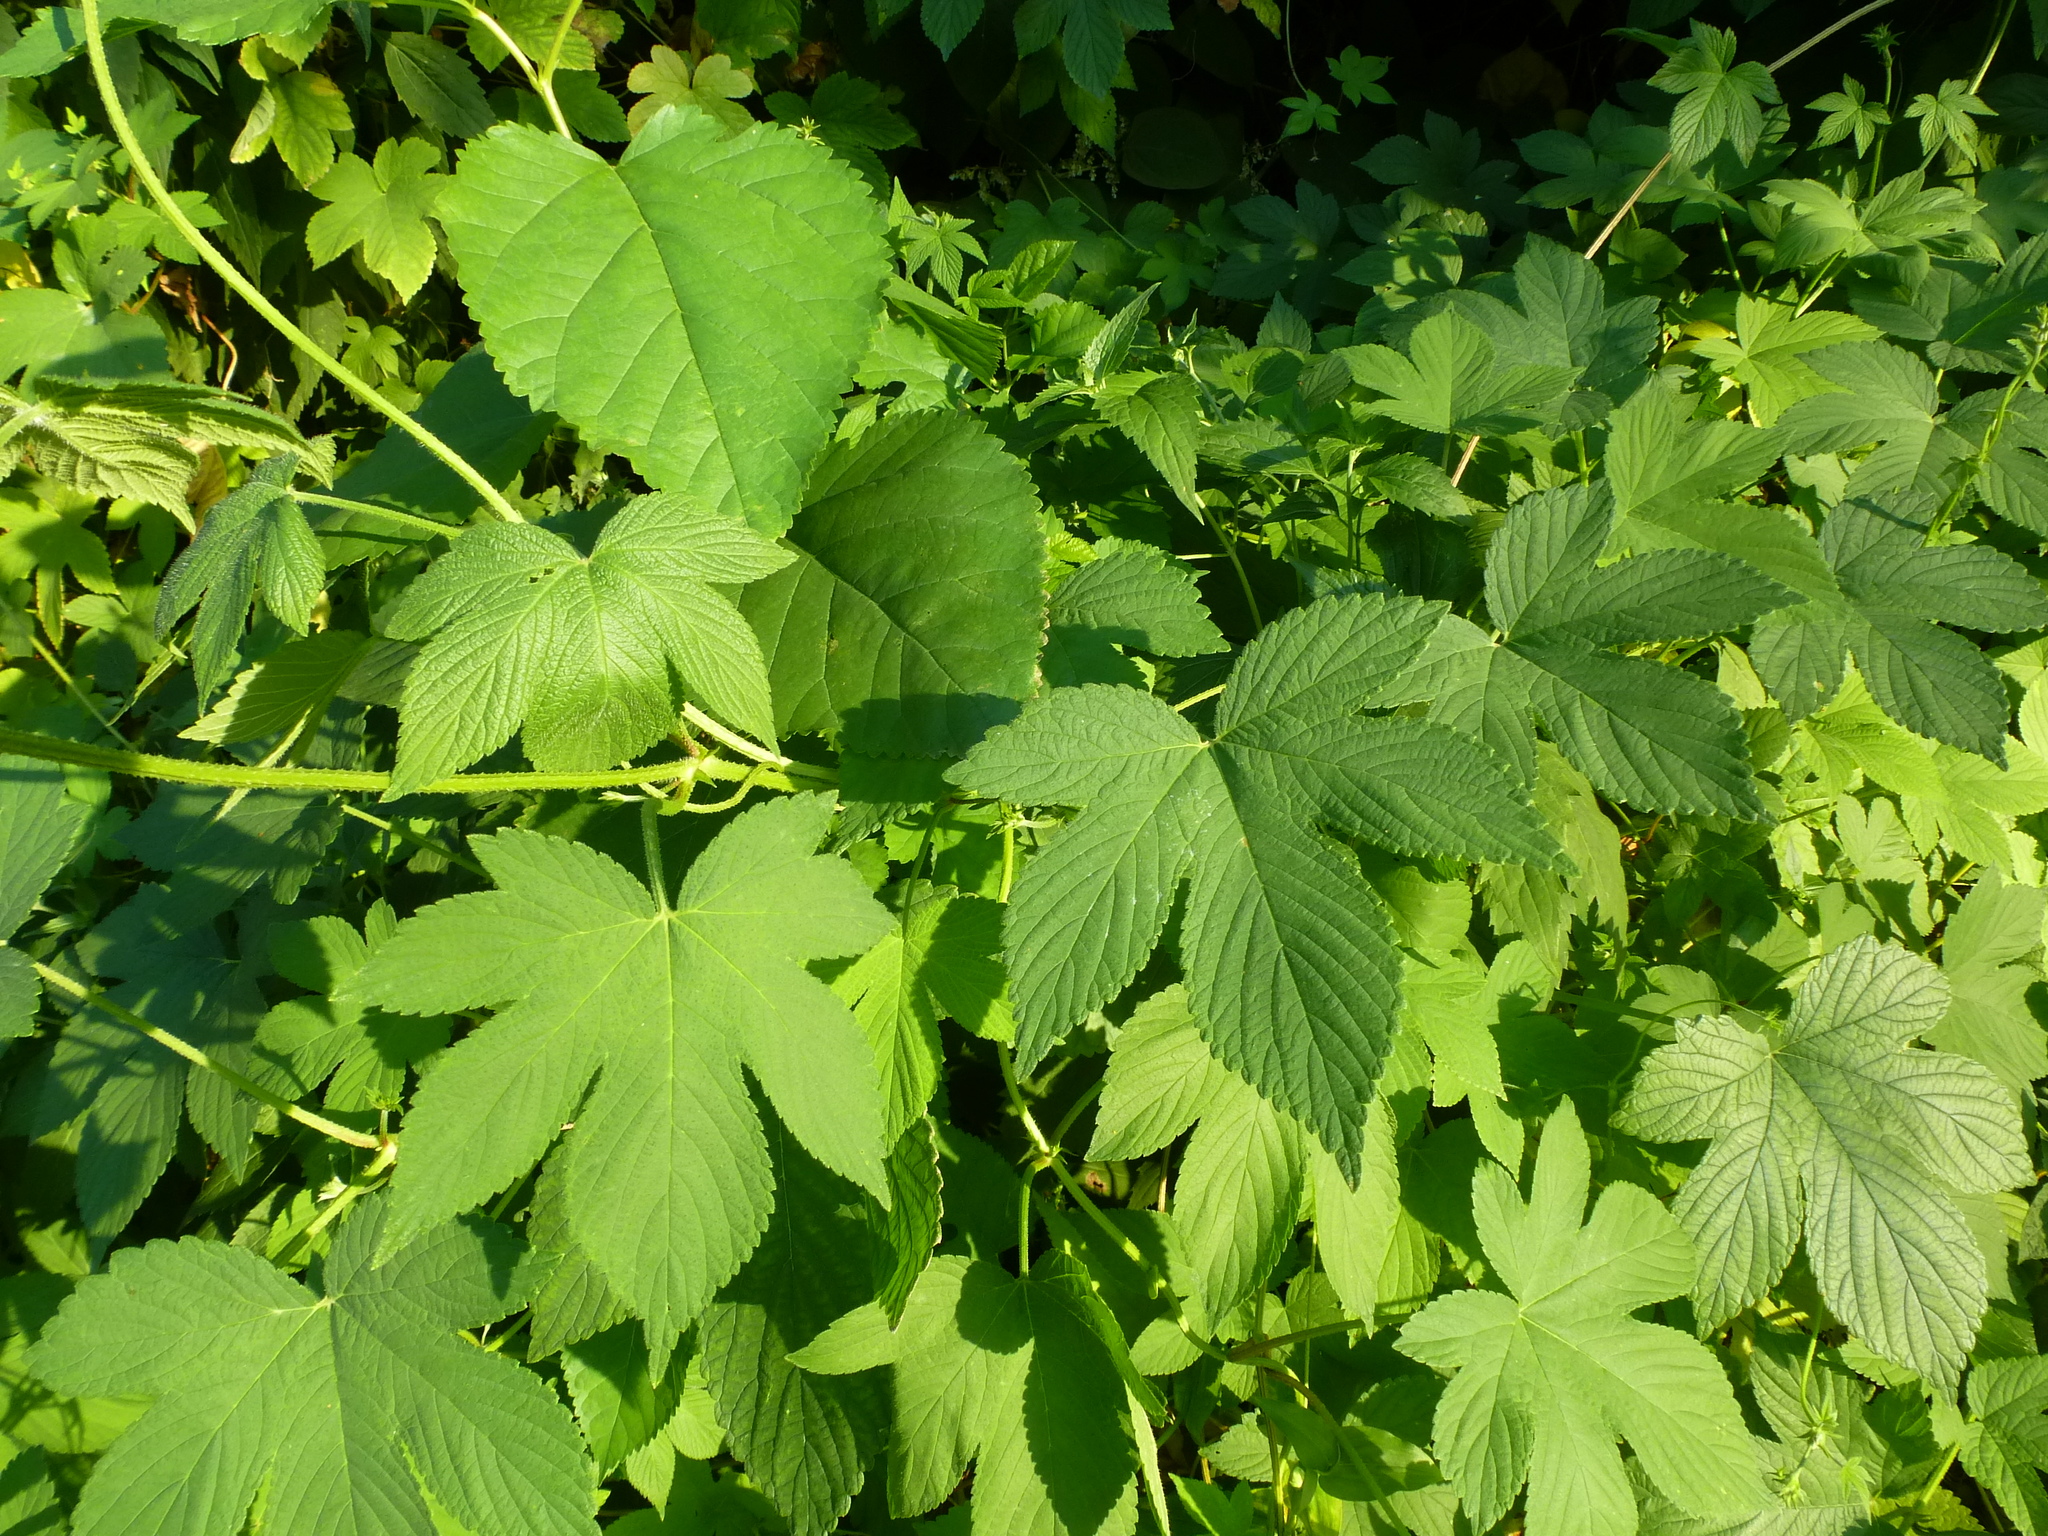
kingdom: Plantae
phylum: Tracheophyta
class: Magnoliopsida
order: Rosales
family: Cannabaceae
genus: Humulus
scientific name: Humulus scandens
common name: Japanese hop
